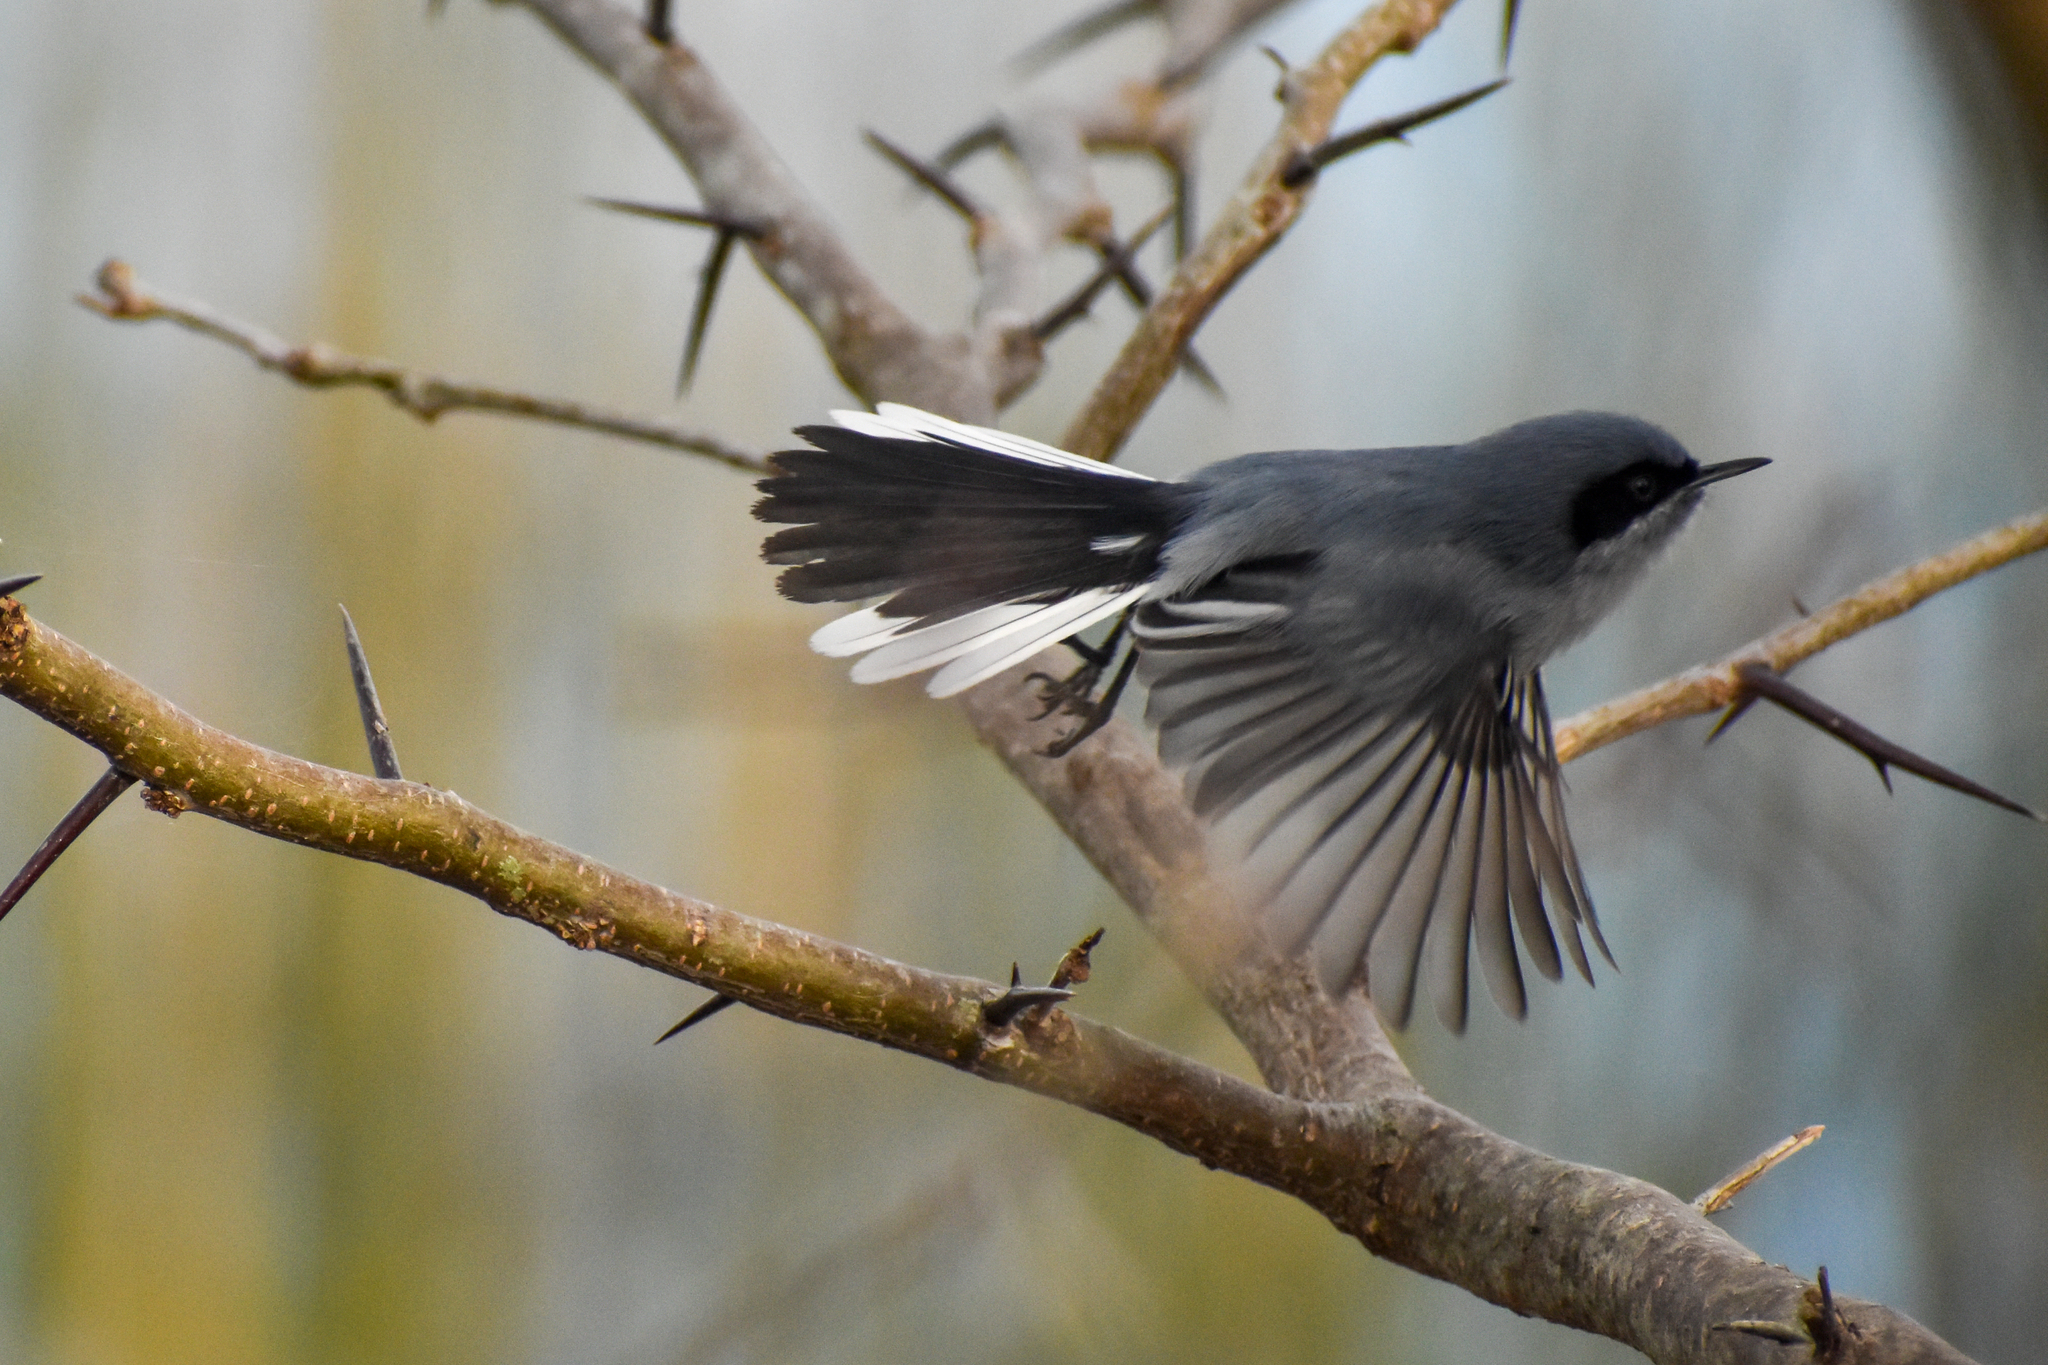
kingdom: Animalia
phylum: Chordata
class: Aves
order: Passeriformes
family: Polioptilidae
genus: Polioptila
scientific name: Polioptila dumicola
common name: Masked gnatcatcher
